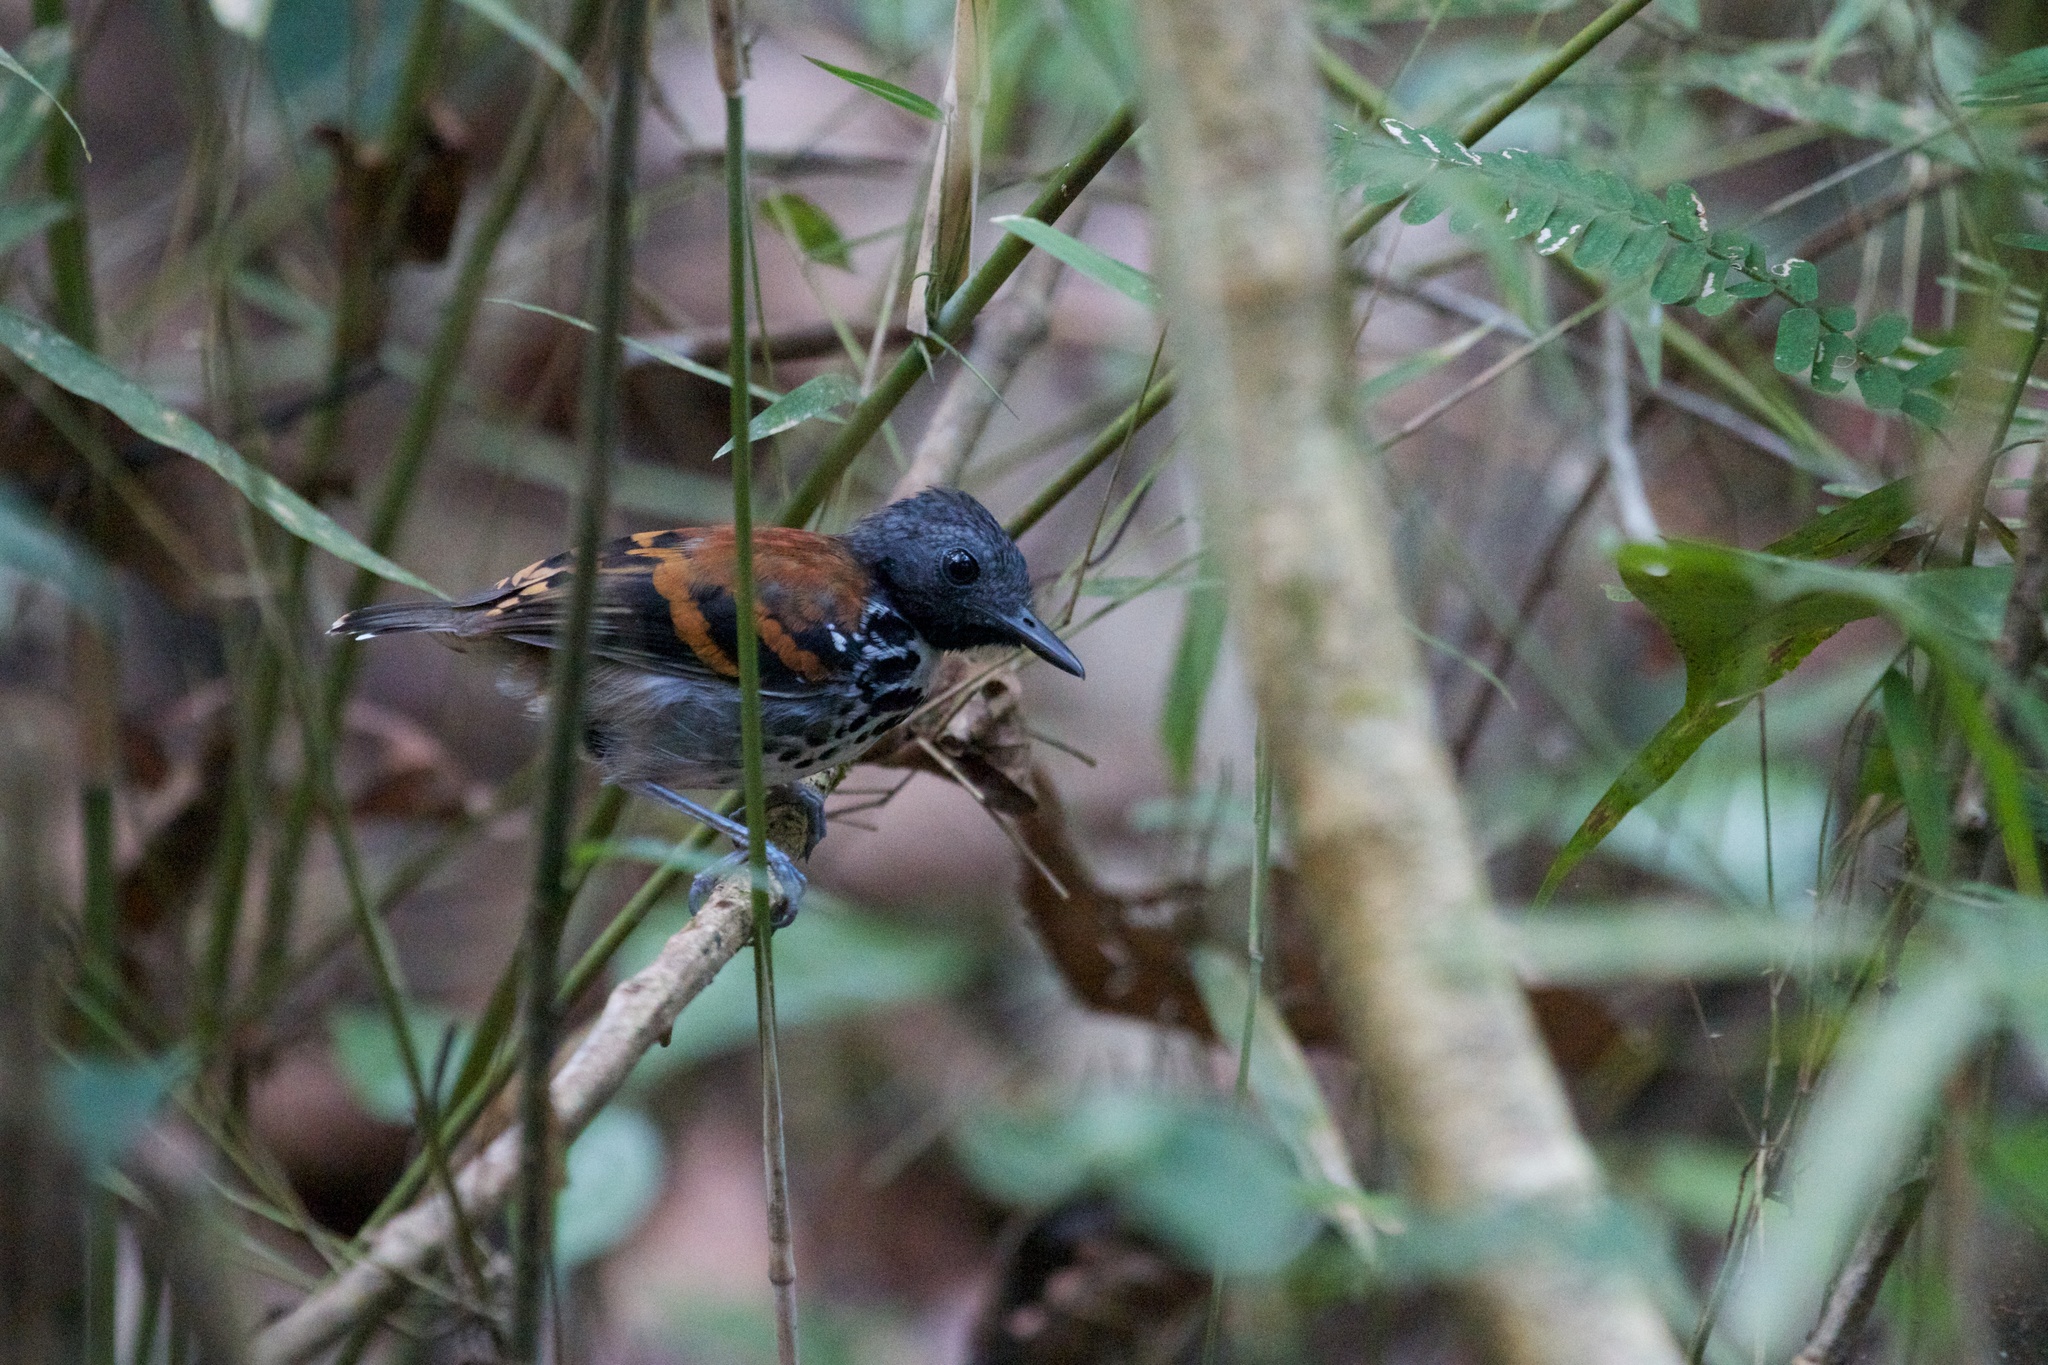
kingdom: Animalia
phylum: Chordata
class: Aves
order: Passeriformes
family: Thamnophilidae
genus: Hylophylax
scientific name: Hylophylax naevioides
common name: Spotted antbird
